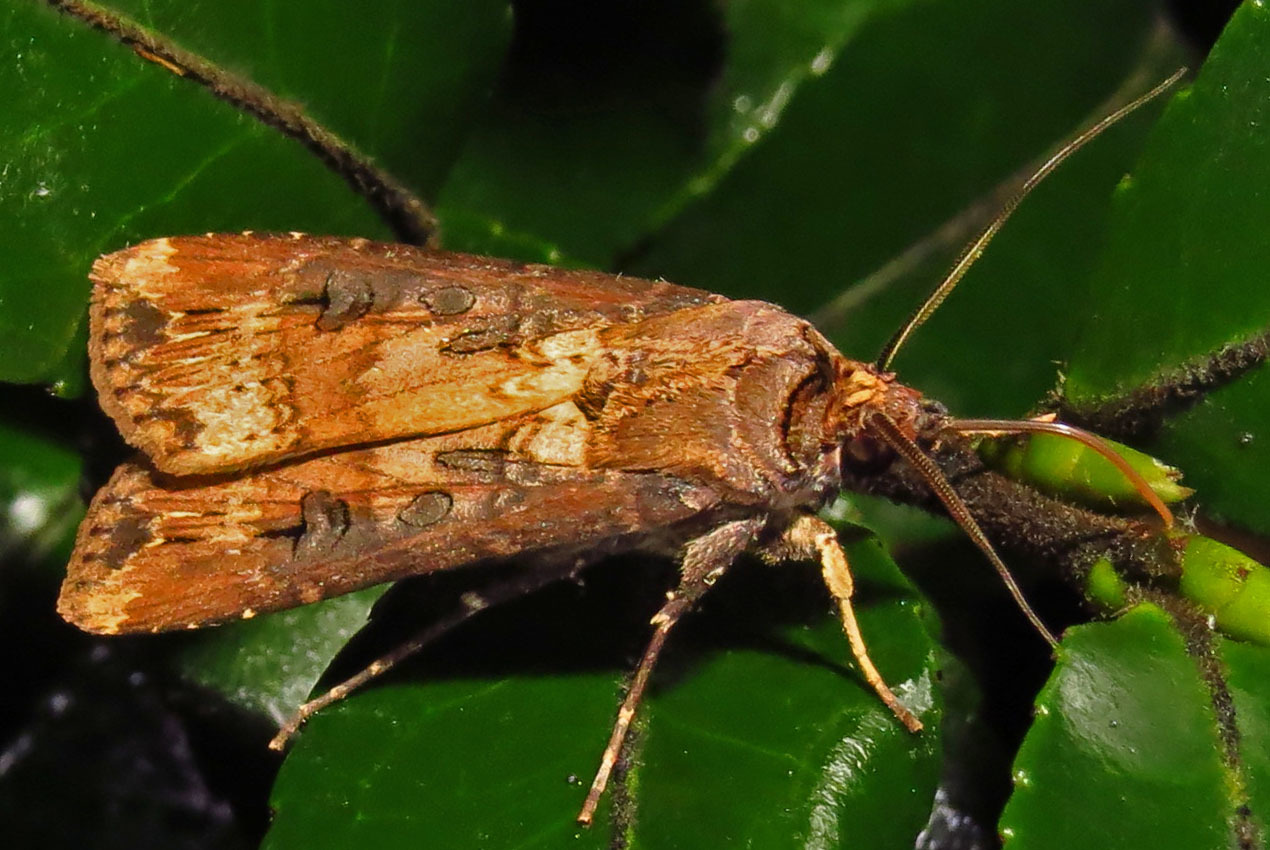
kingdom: Animalia
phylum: Arthropoda
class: Insecta
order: Lepidoptera
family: Noctuidae
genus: Agrotis
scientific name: Agrotis ipsilon
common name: Dark sword-grass
